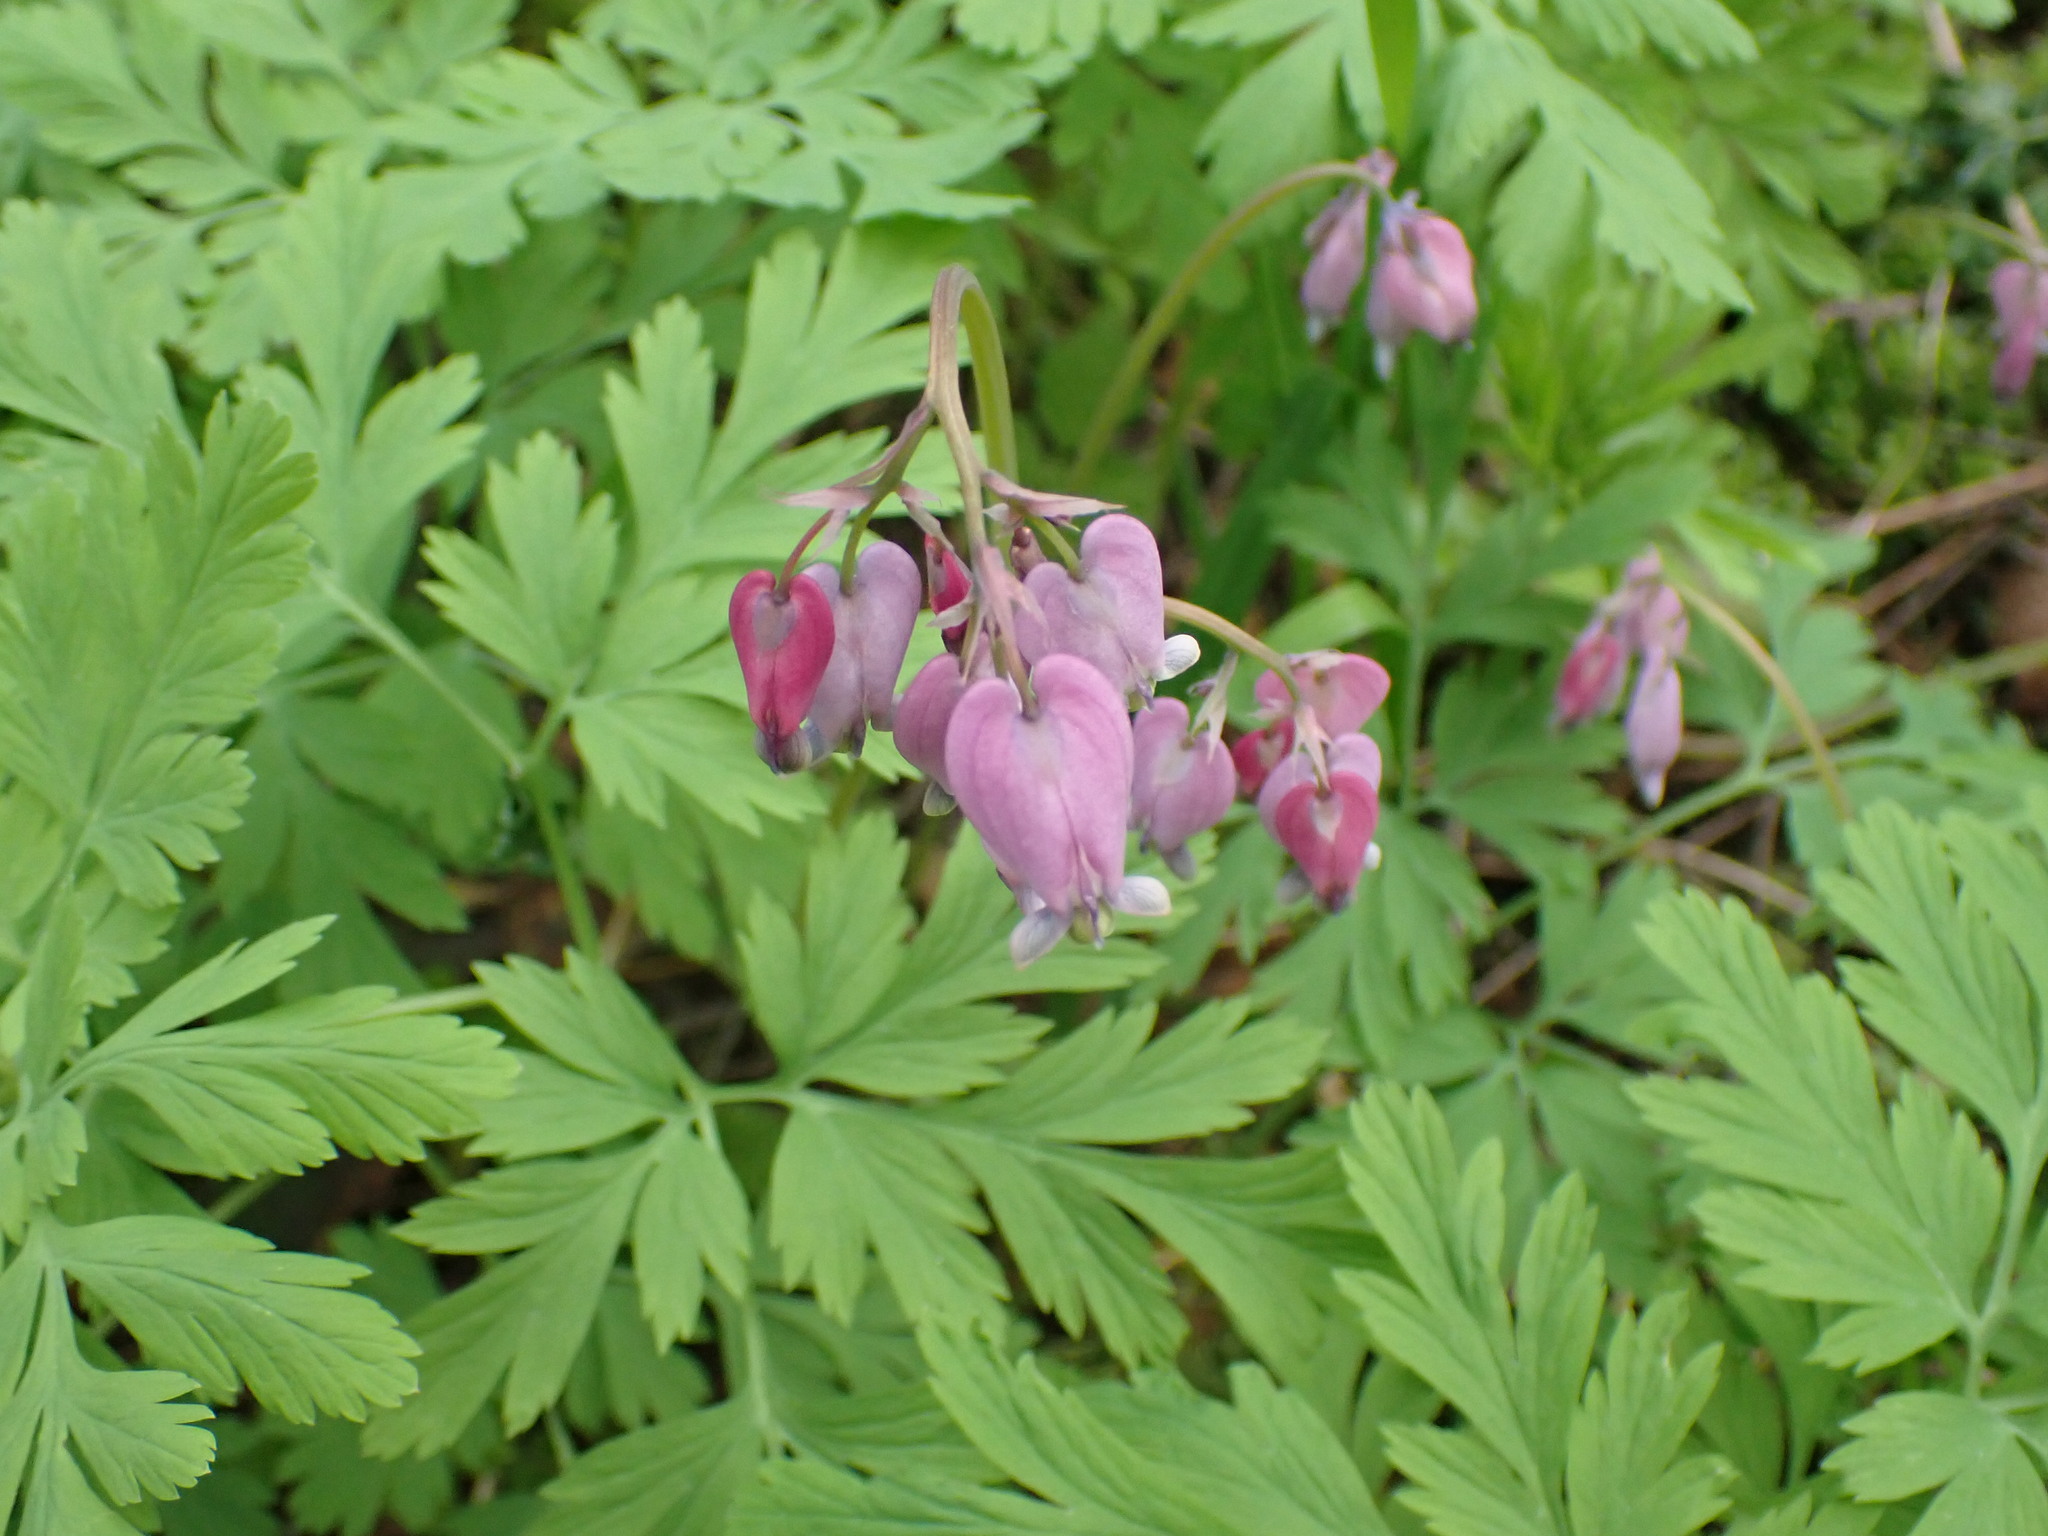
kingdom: Plantae
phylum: Tracheophyta
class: Magnoliopsida
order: Ranunculales
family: Papaveraceae
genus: Dicentra
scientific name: Dicentra formosa
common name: Bleeding-heart
